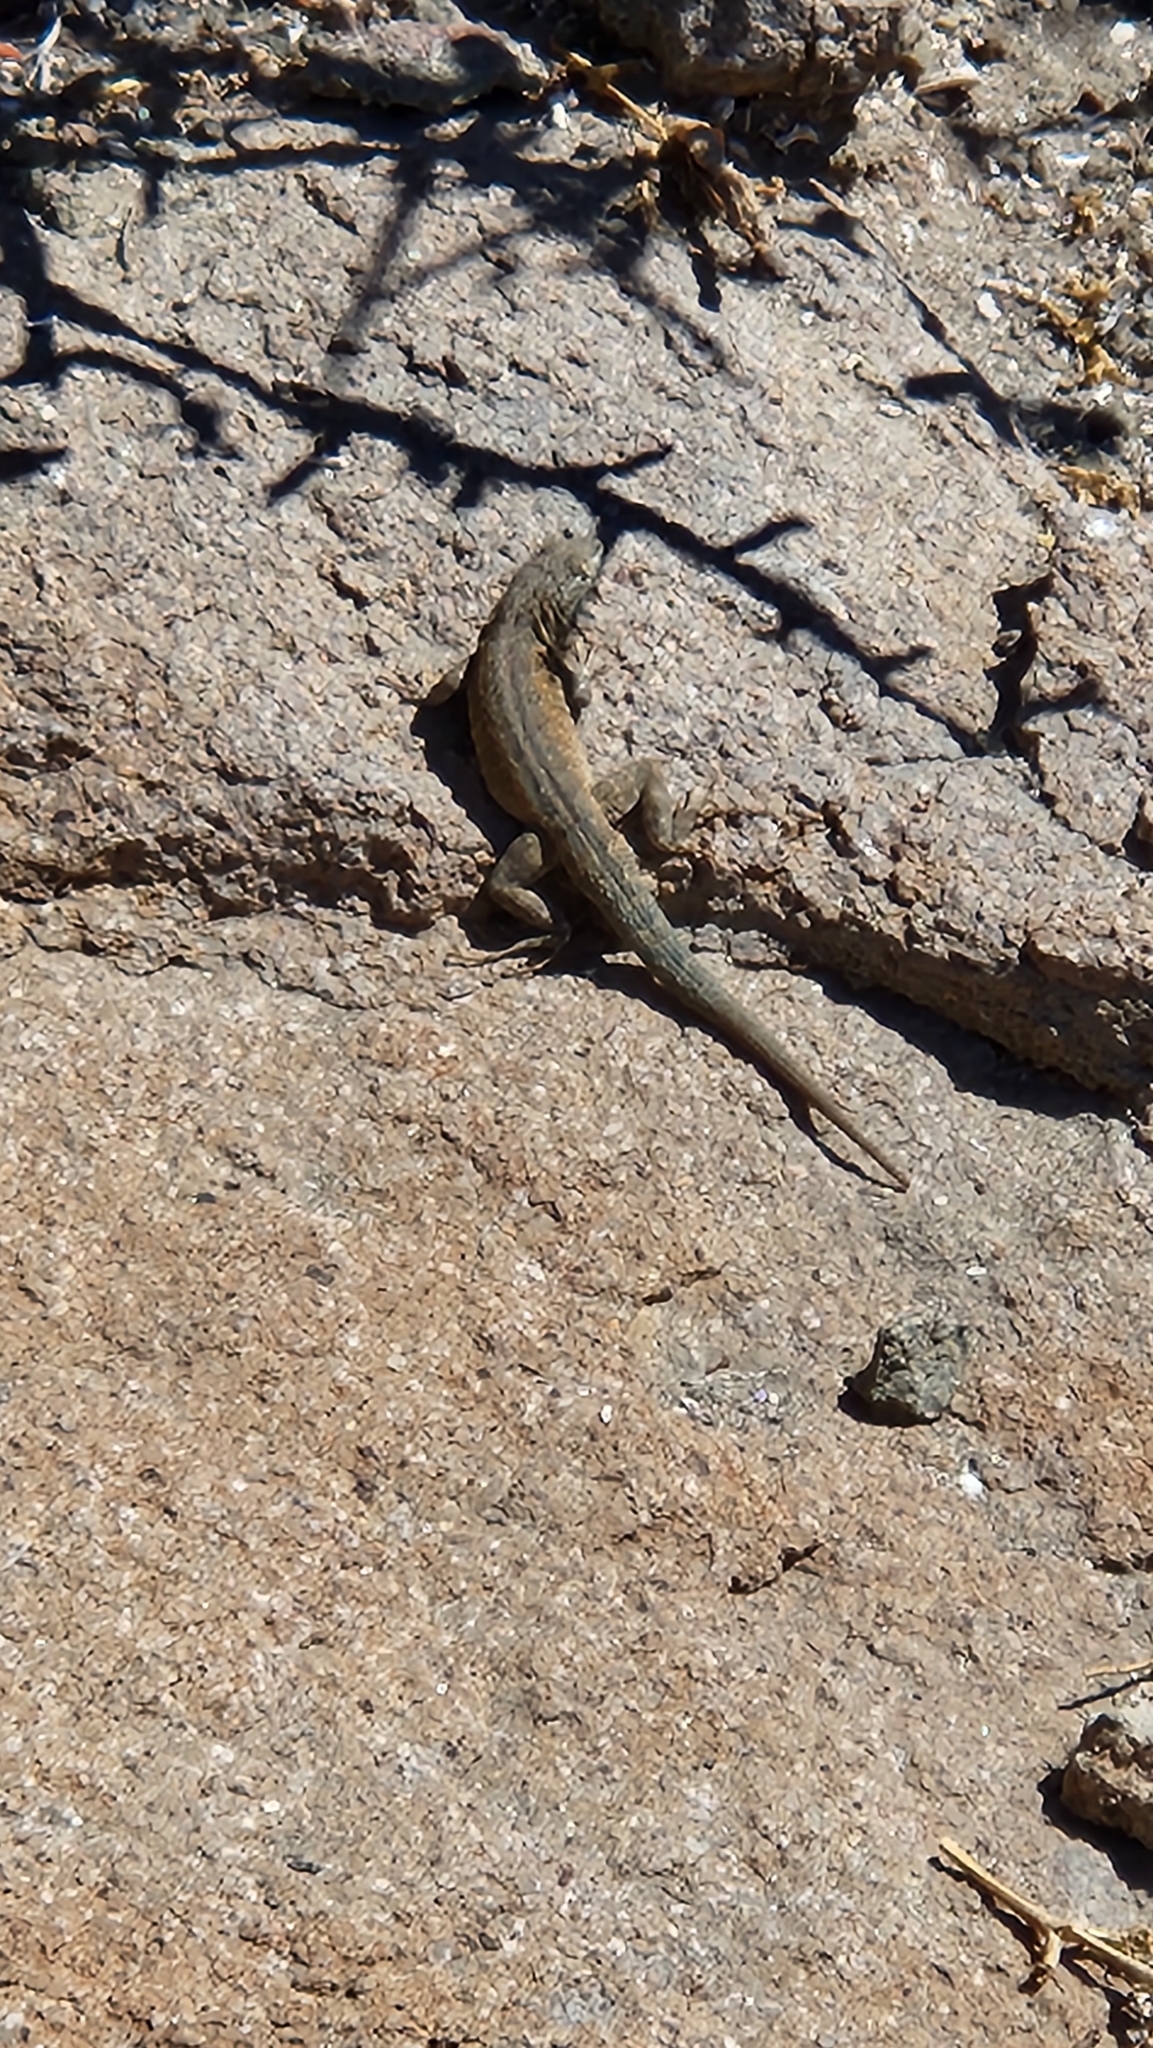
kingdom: Animalia
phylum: Chordata
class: Squamata
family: Phrynosomatidae
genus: Uta
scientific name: Uta stansburiana
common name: Side-blotched lizard
